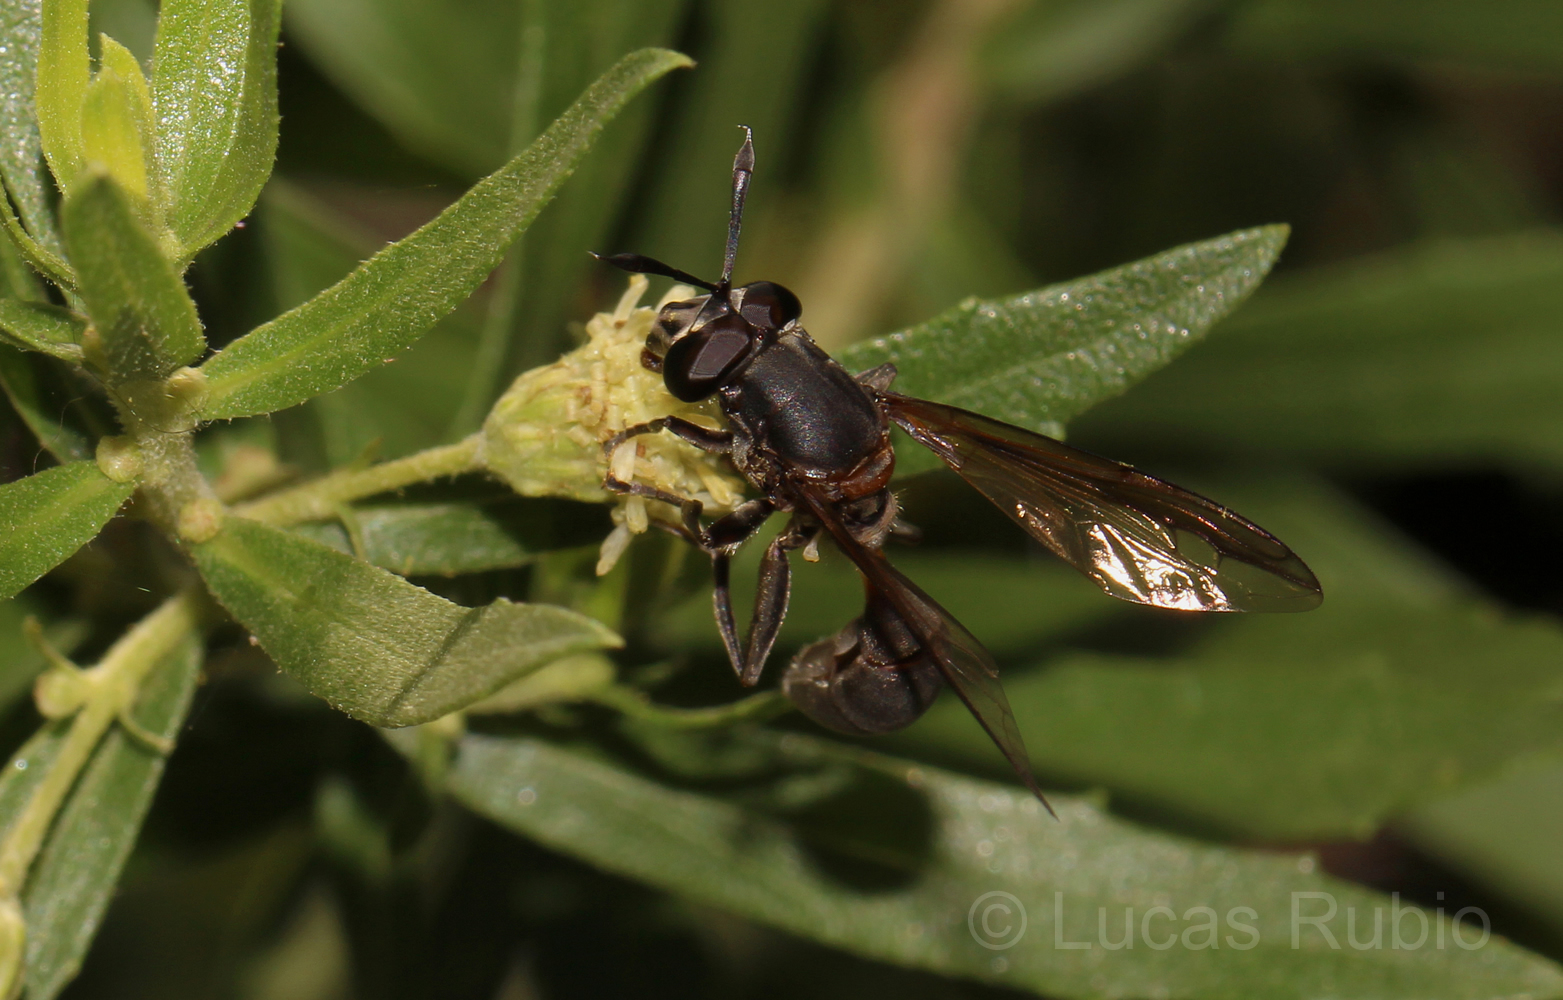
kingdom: Animalia
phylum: Arthropoda
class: Insecta
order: Diptera
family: Syrphidae
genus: Sphiximorpha
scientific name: Sphiximorpha barbipes
